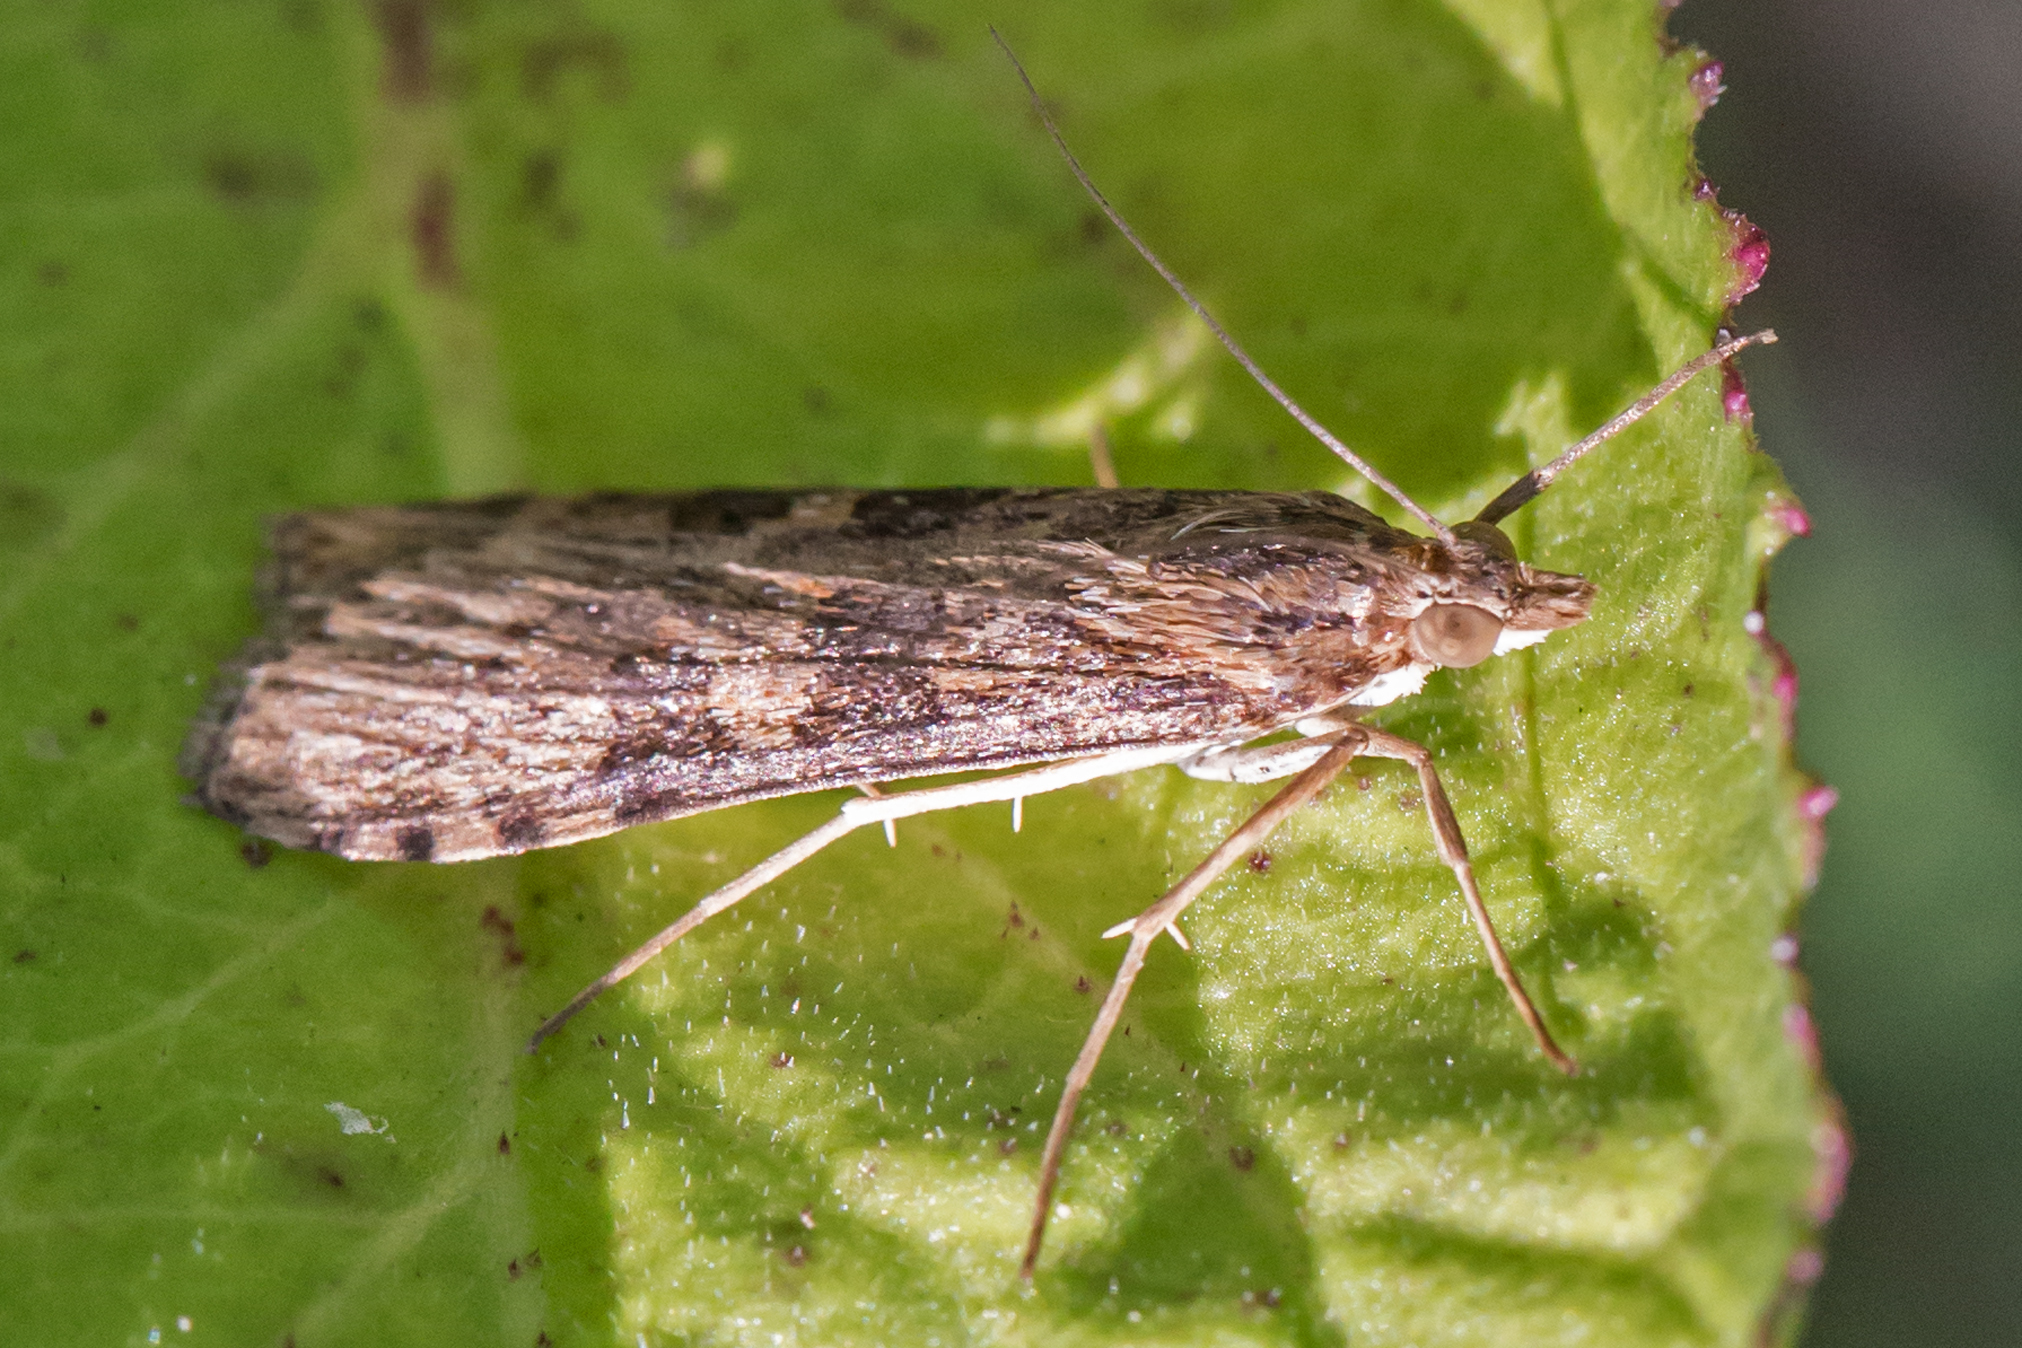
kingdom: Animalia
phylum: Arthropoda
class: Insecta
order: Lepidoptera
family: Crambidae
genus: Nomophila
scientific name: Nomophila nearctica
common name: American rush veneer
